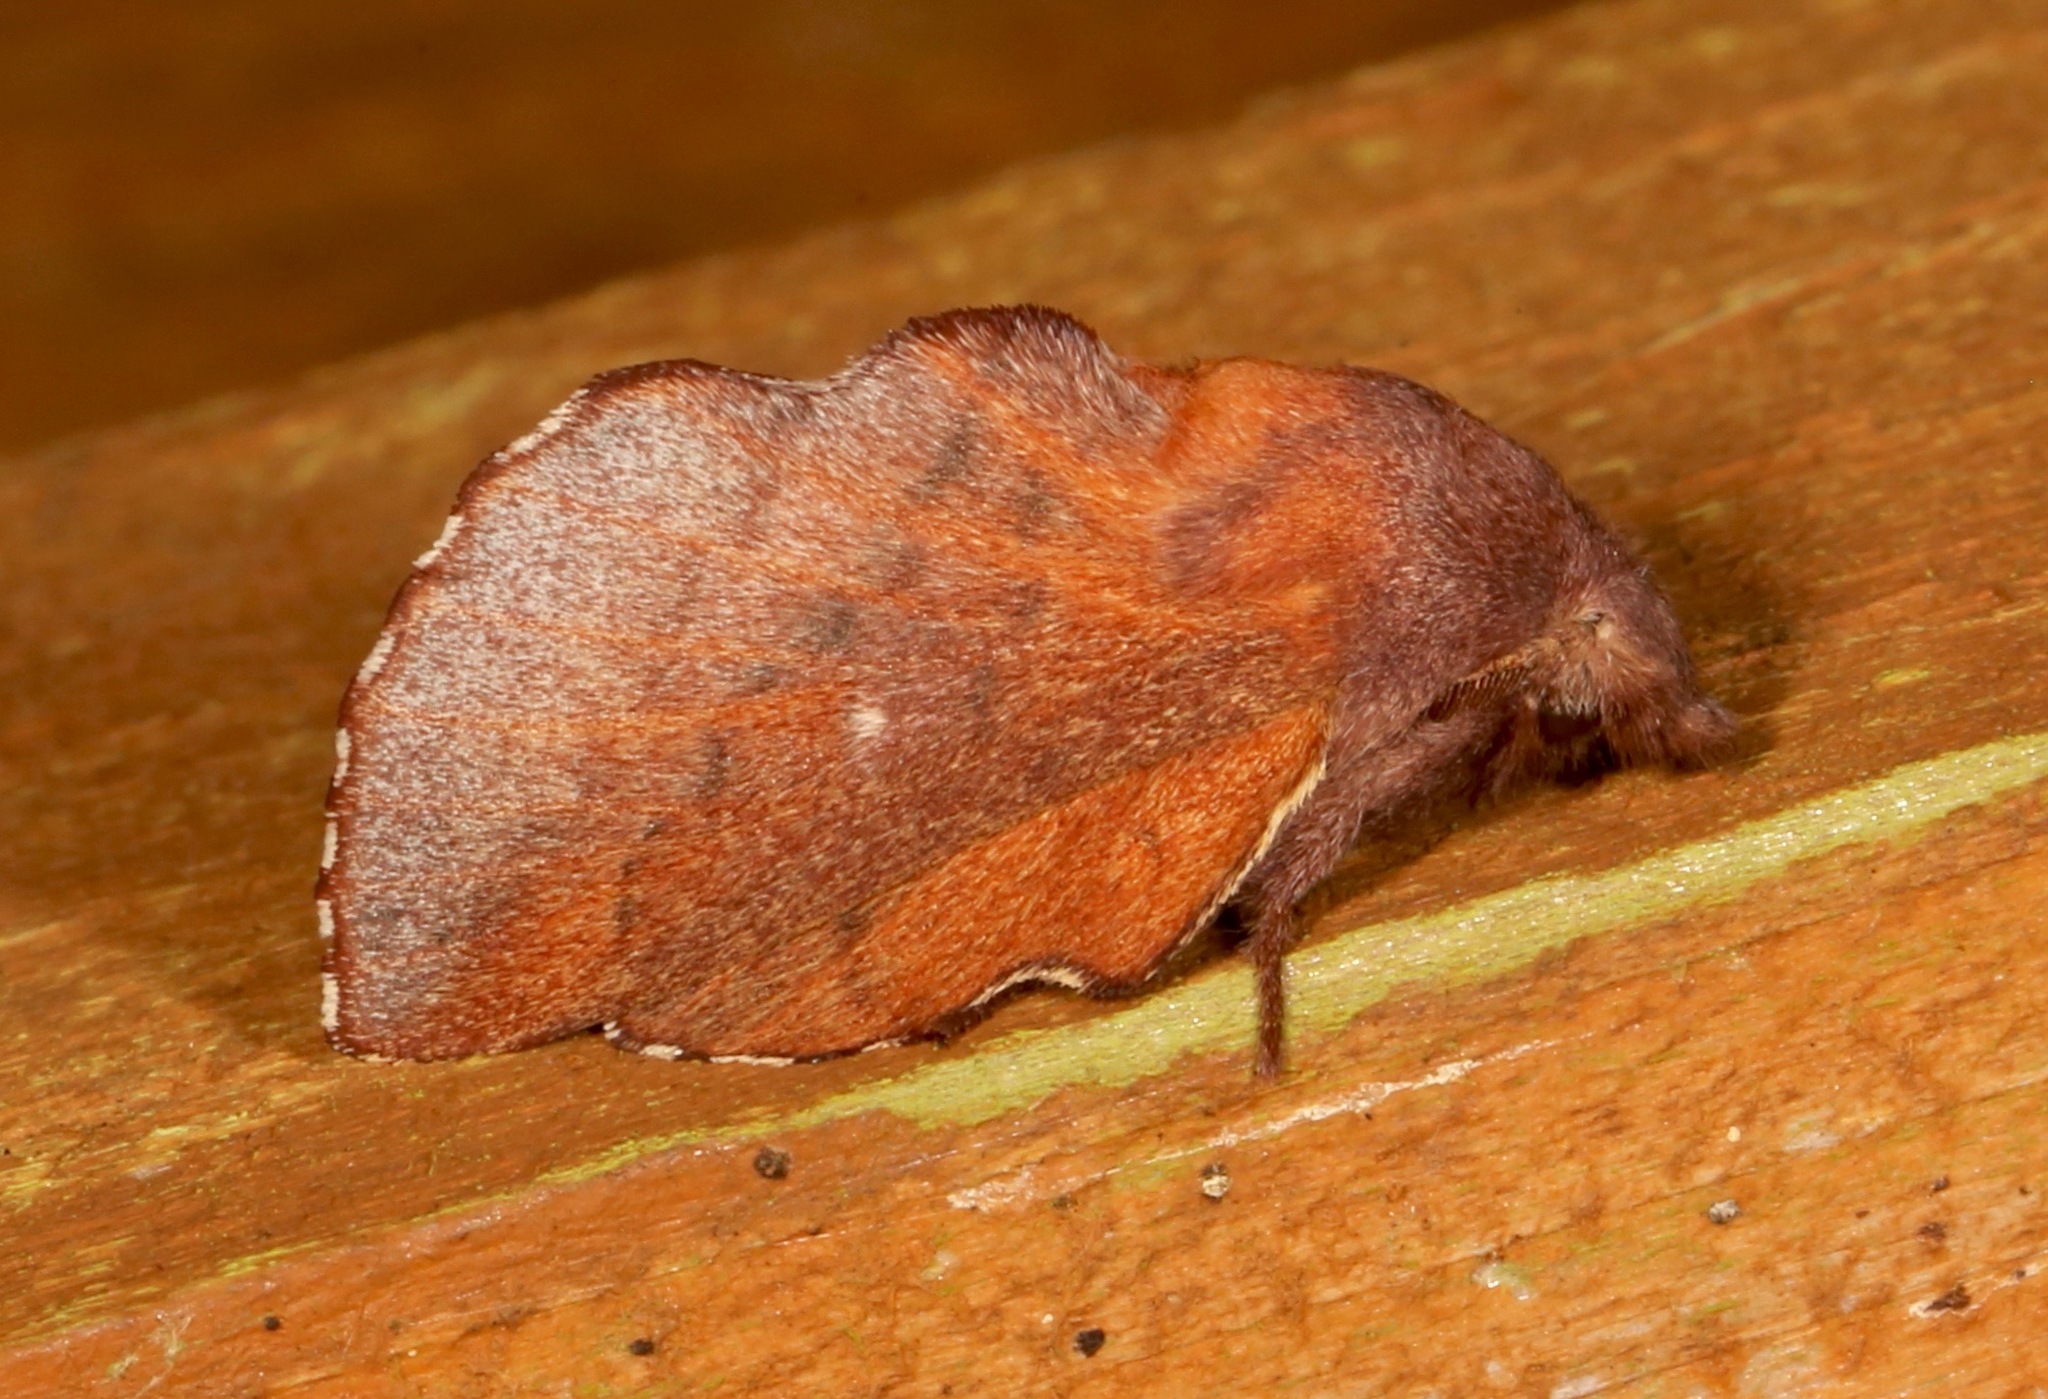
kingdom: Animalia
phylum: Arthropoda
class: Insecta
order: Lepidoptera
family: Lasiocampidae
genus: Phyllodesma
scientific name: Phyllodesma americana
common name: American lappet moth
